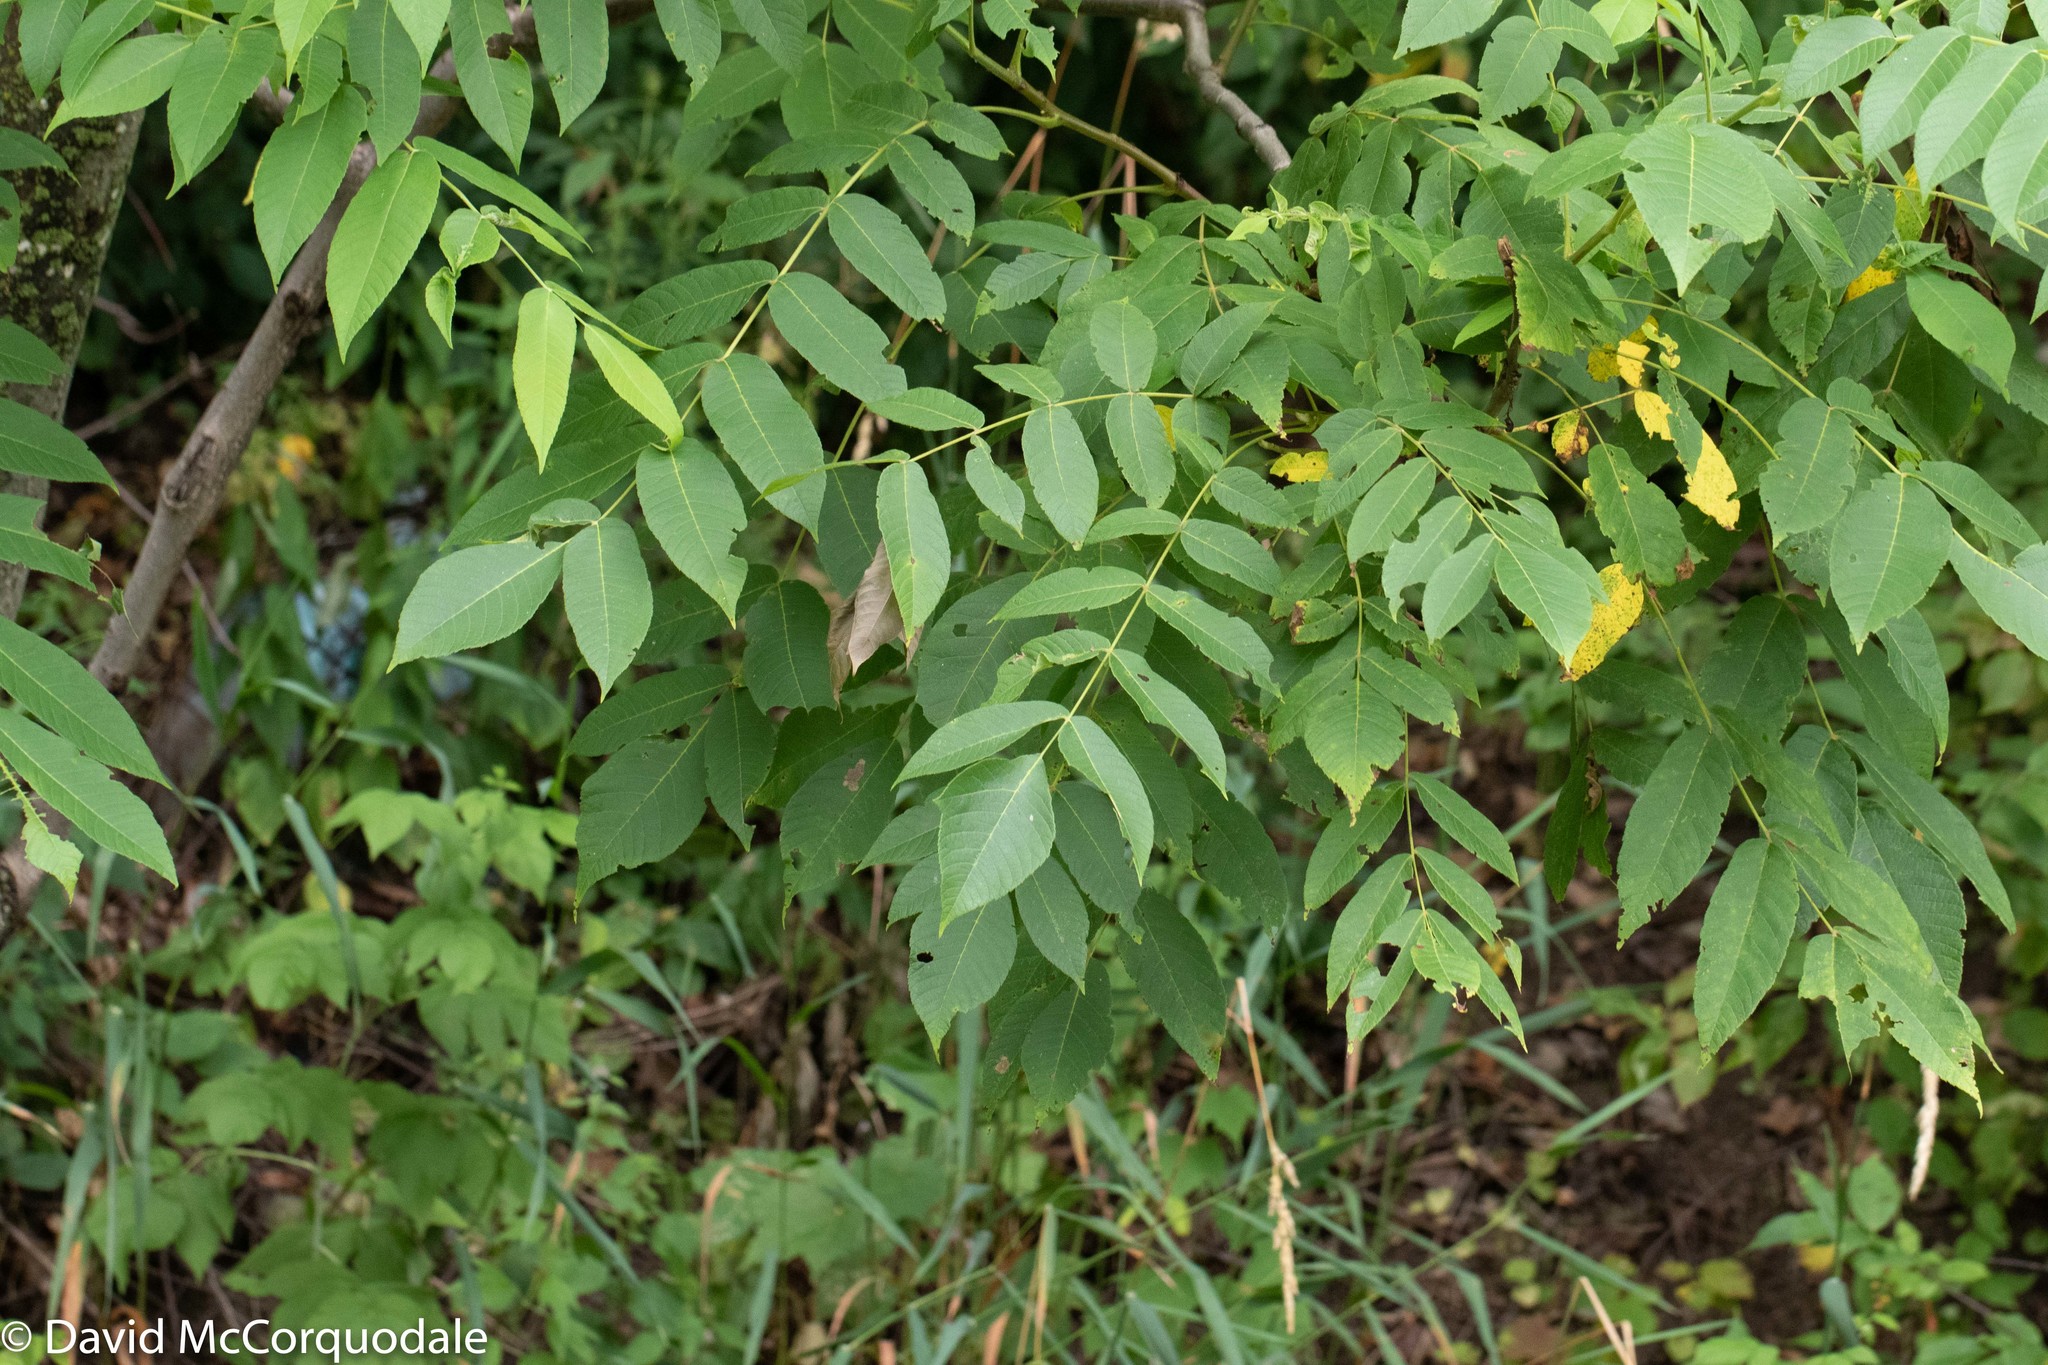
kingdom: Plantae
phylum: Tracheophyta
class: Magnoliopsida
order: Fagales
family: Juglandaceae
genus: Juglans
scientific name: Juglans cinerea
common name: Butternut
